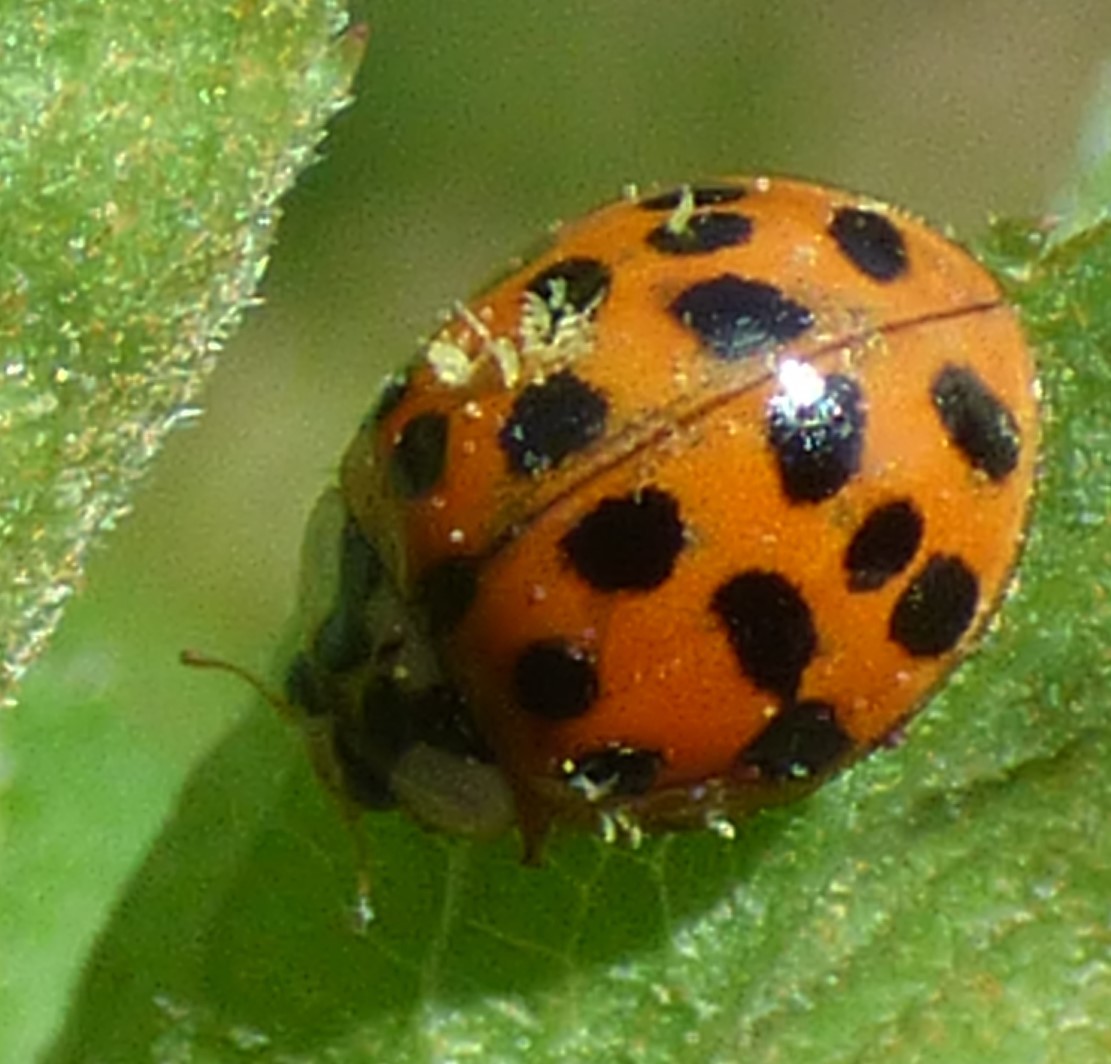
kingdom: Animalia
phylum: Arthropoda
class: Insecta
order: Coleoptera
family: Coccinellidae
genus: Harmonia
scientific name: Harmonia axyridis
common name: Harlequin ladybird
